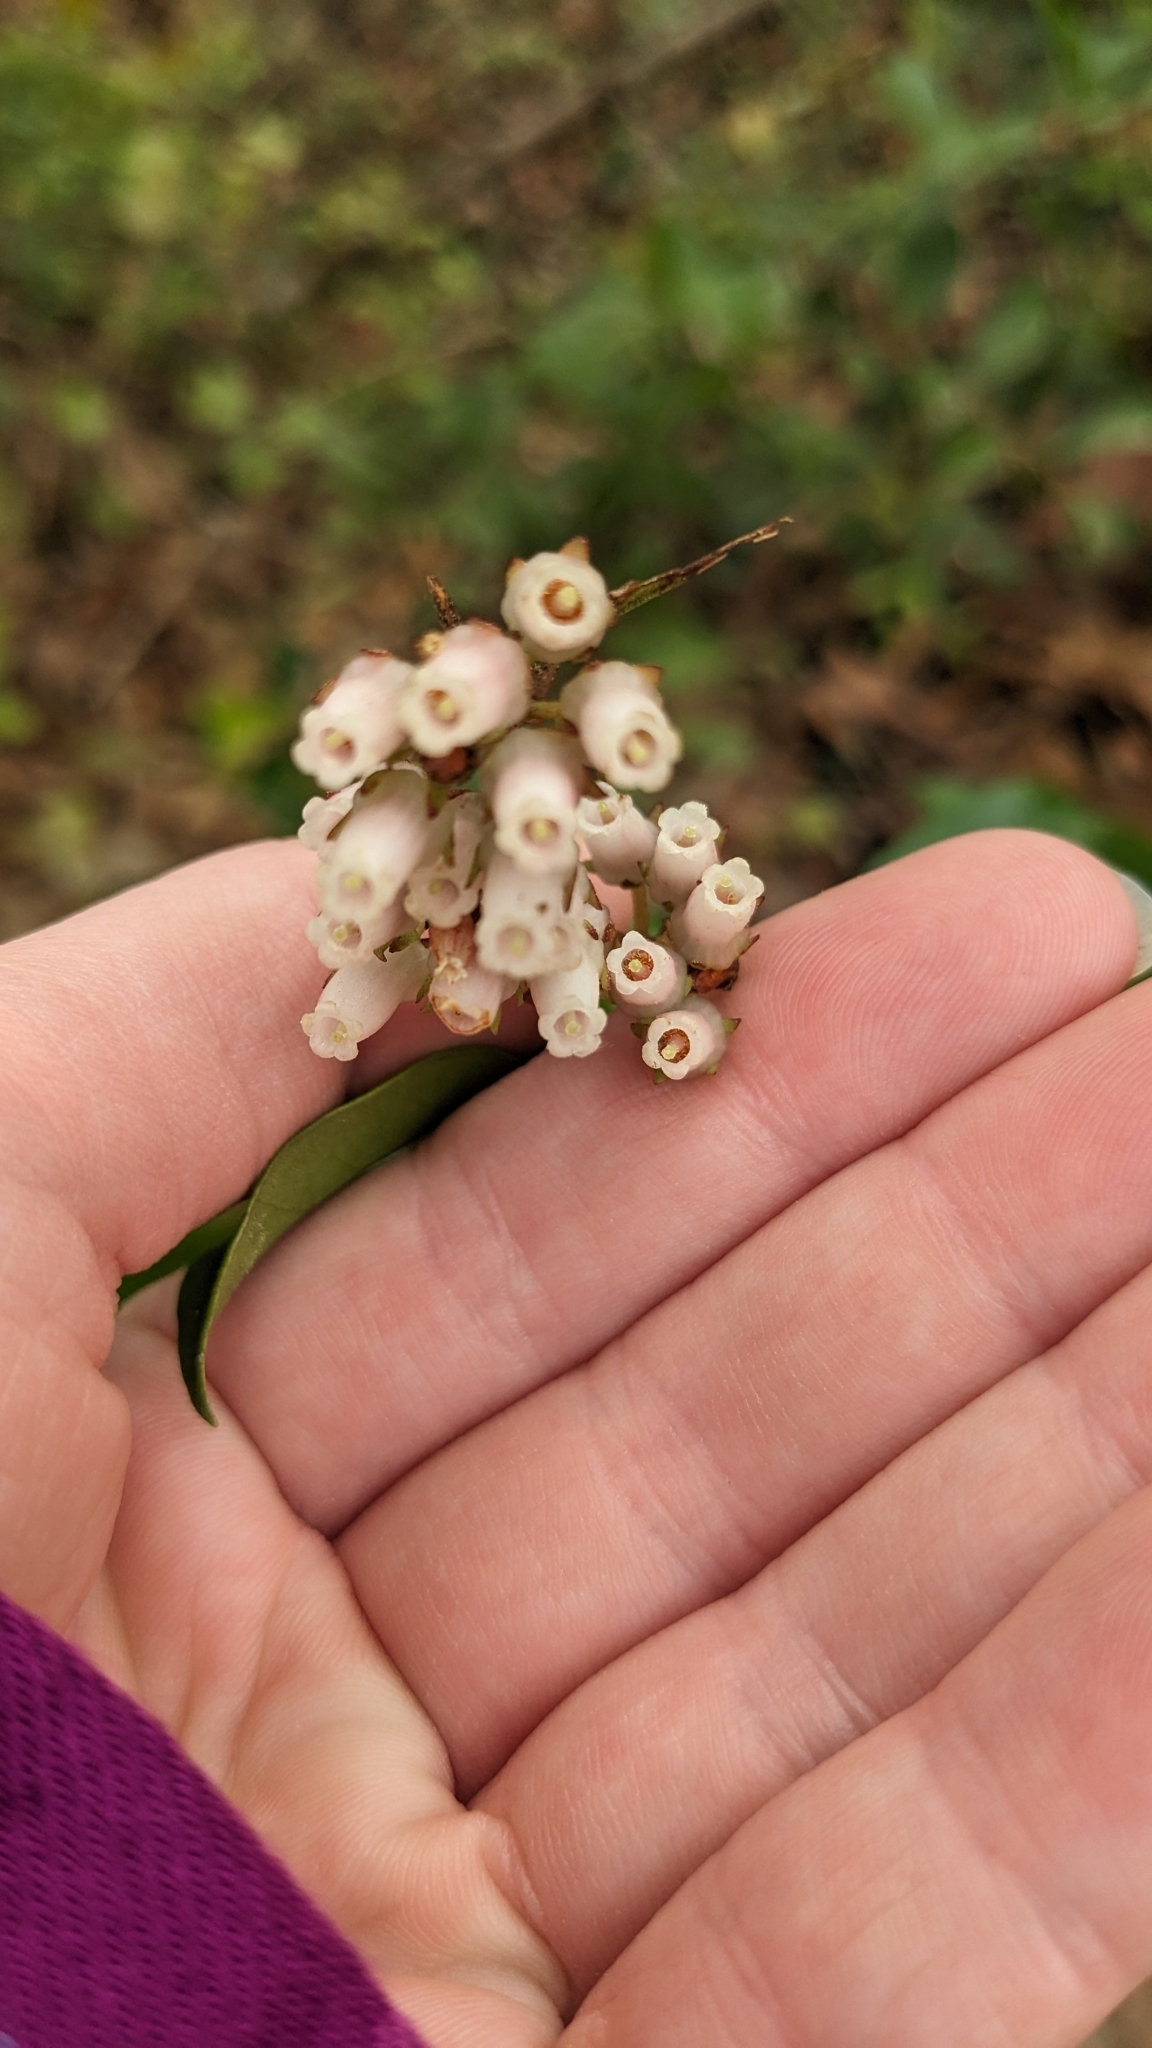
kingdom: Plantae
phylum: Tracheophyta
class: Magnoliopsida
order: Ericales
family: Ericaceae
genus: Lyonia
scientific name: Lyonia lucida
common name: Fetterbush
